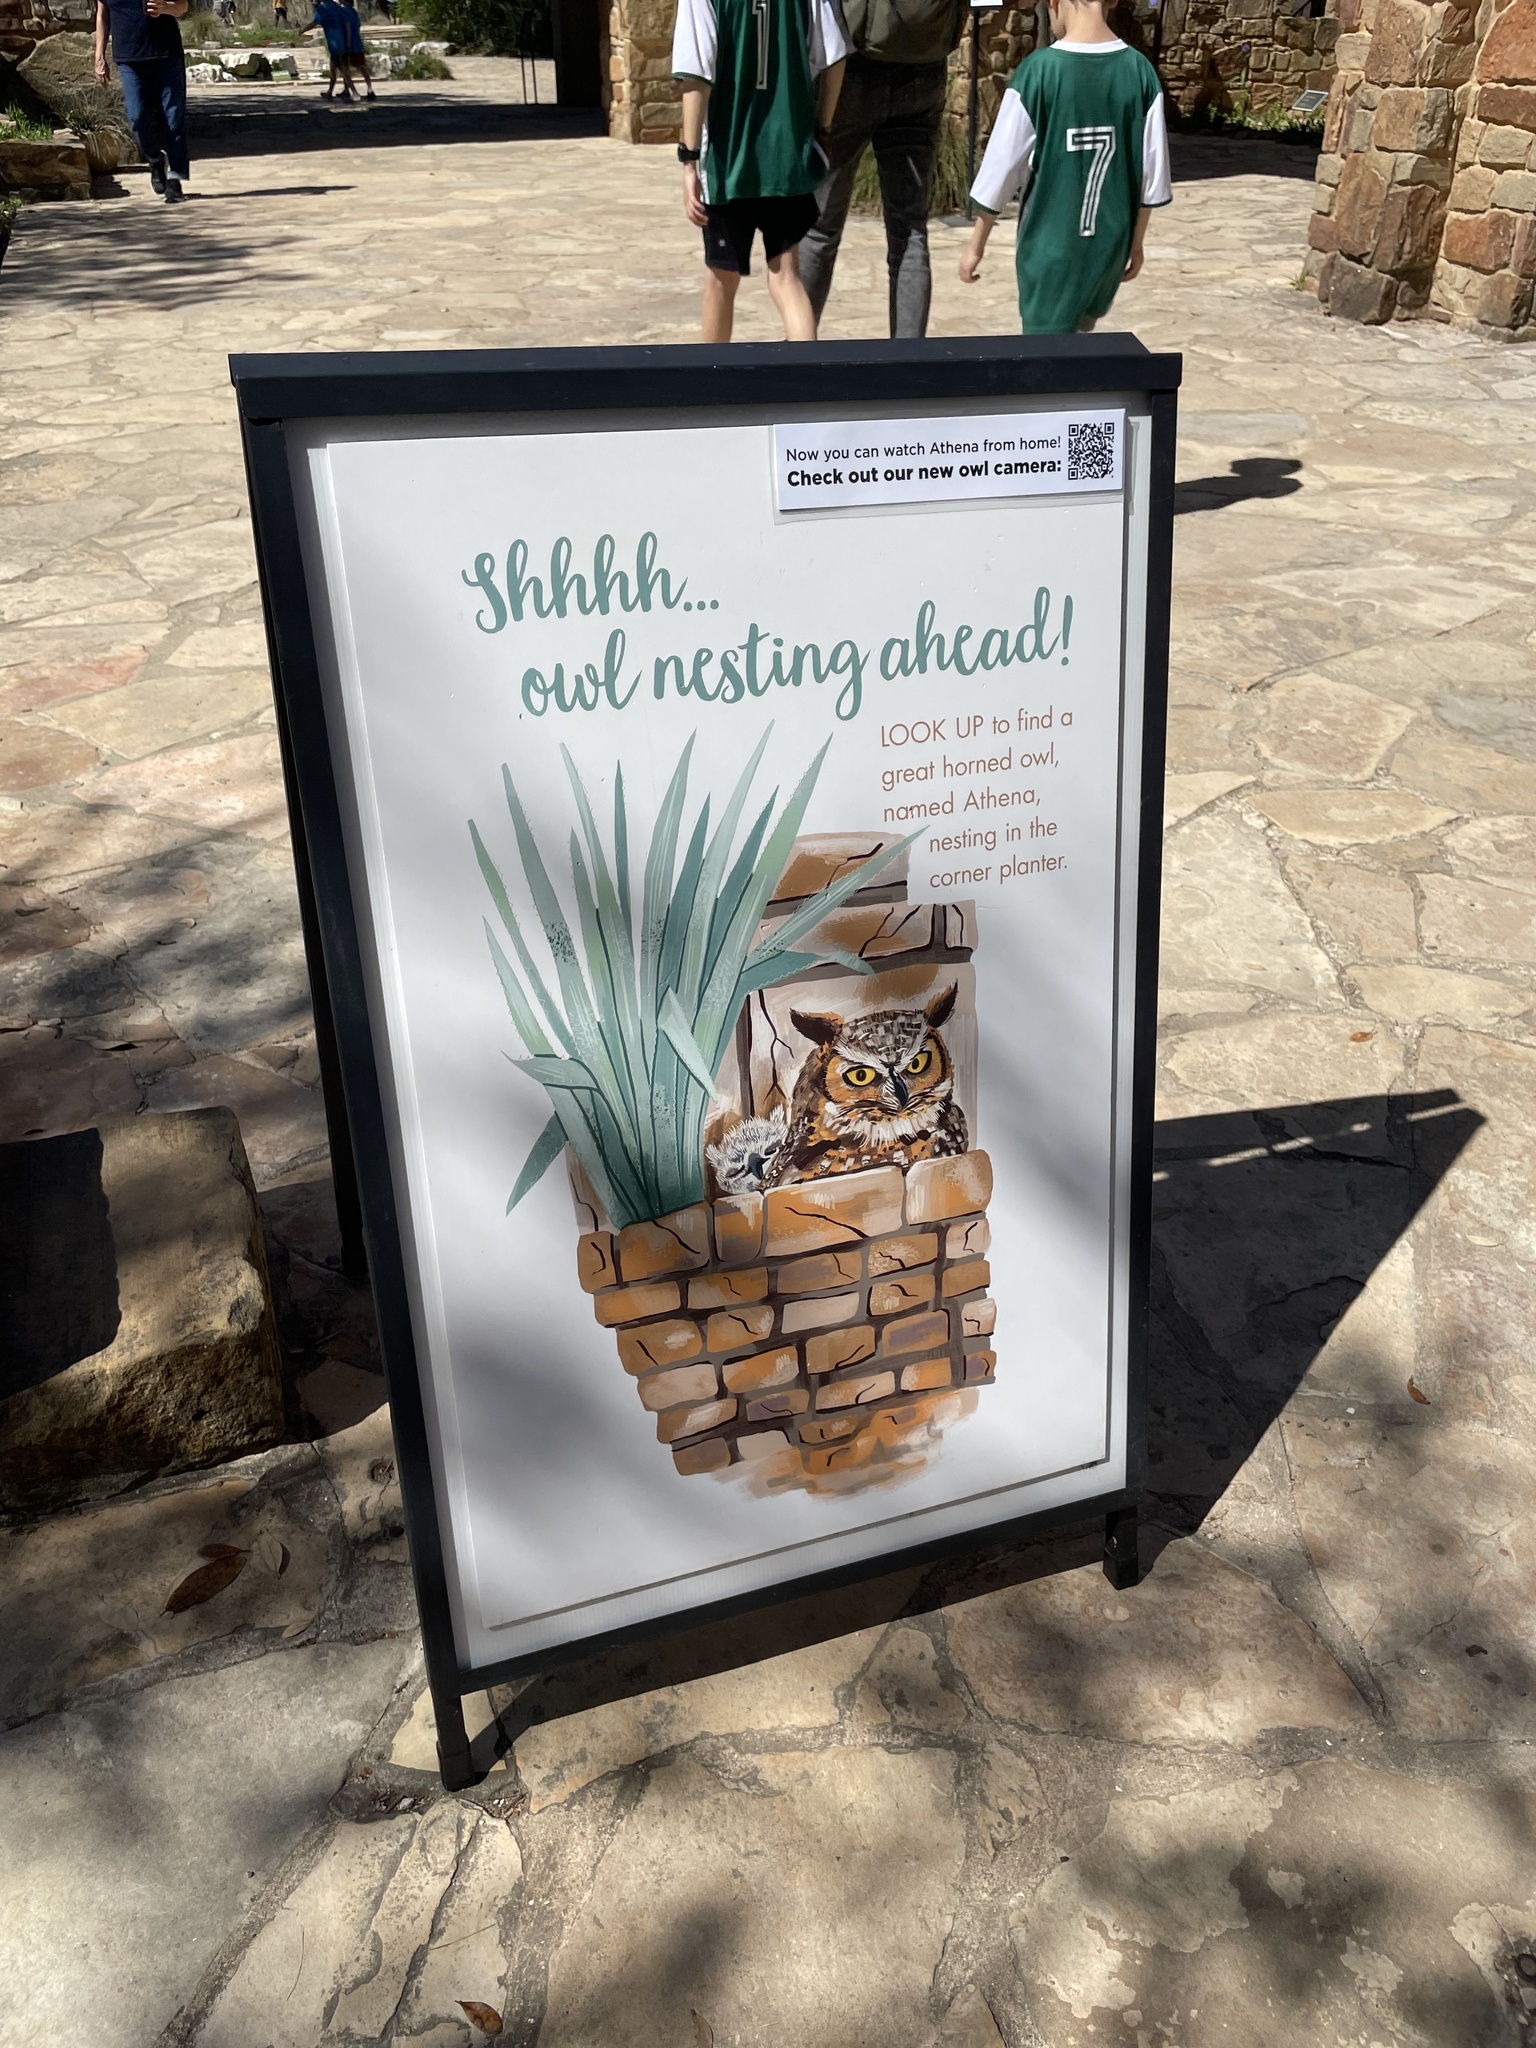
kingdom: Animalia
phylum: Chordata
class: Aves
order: Strigiformes
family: Strigidae
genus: Bubo
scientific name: Bubo virginianus
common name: Great horned owl
